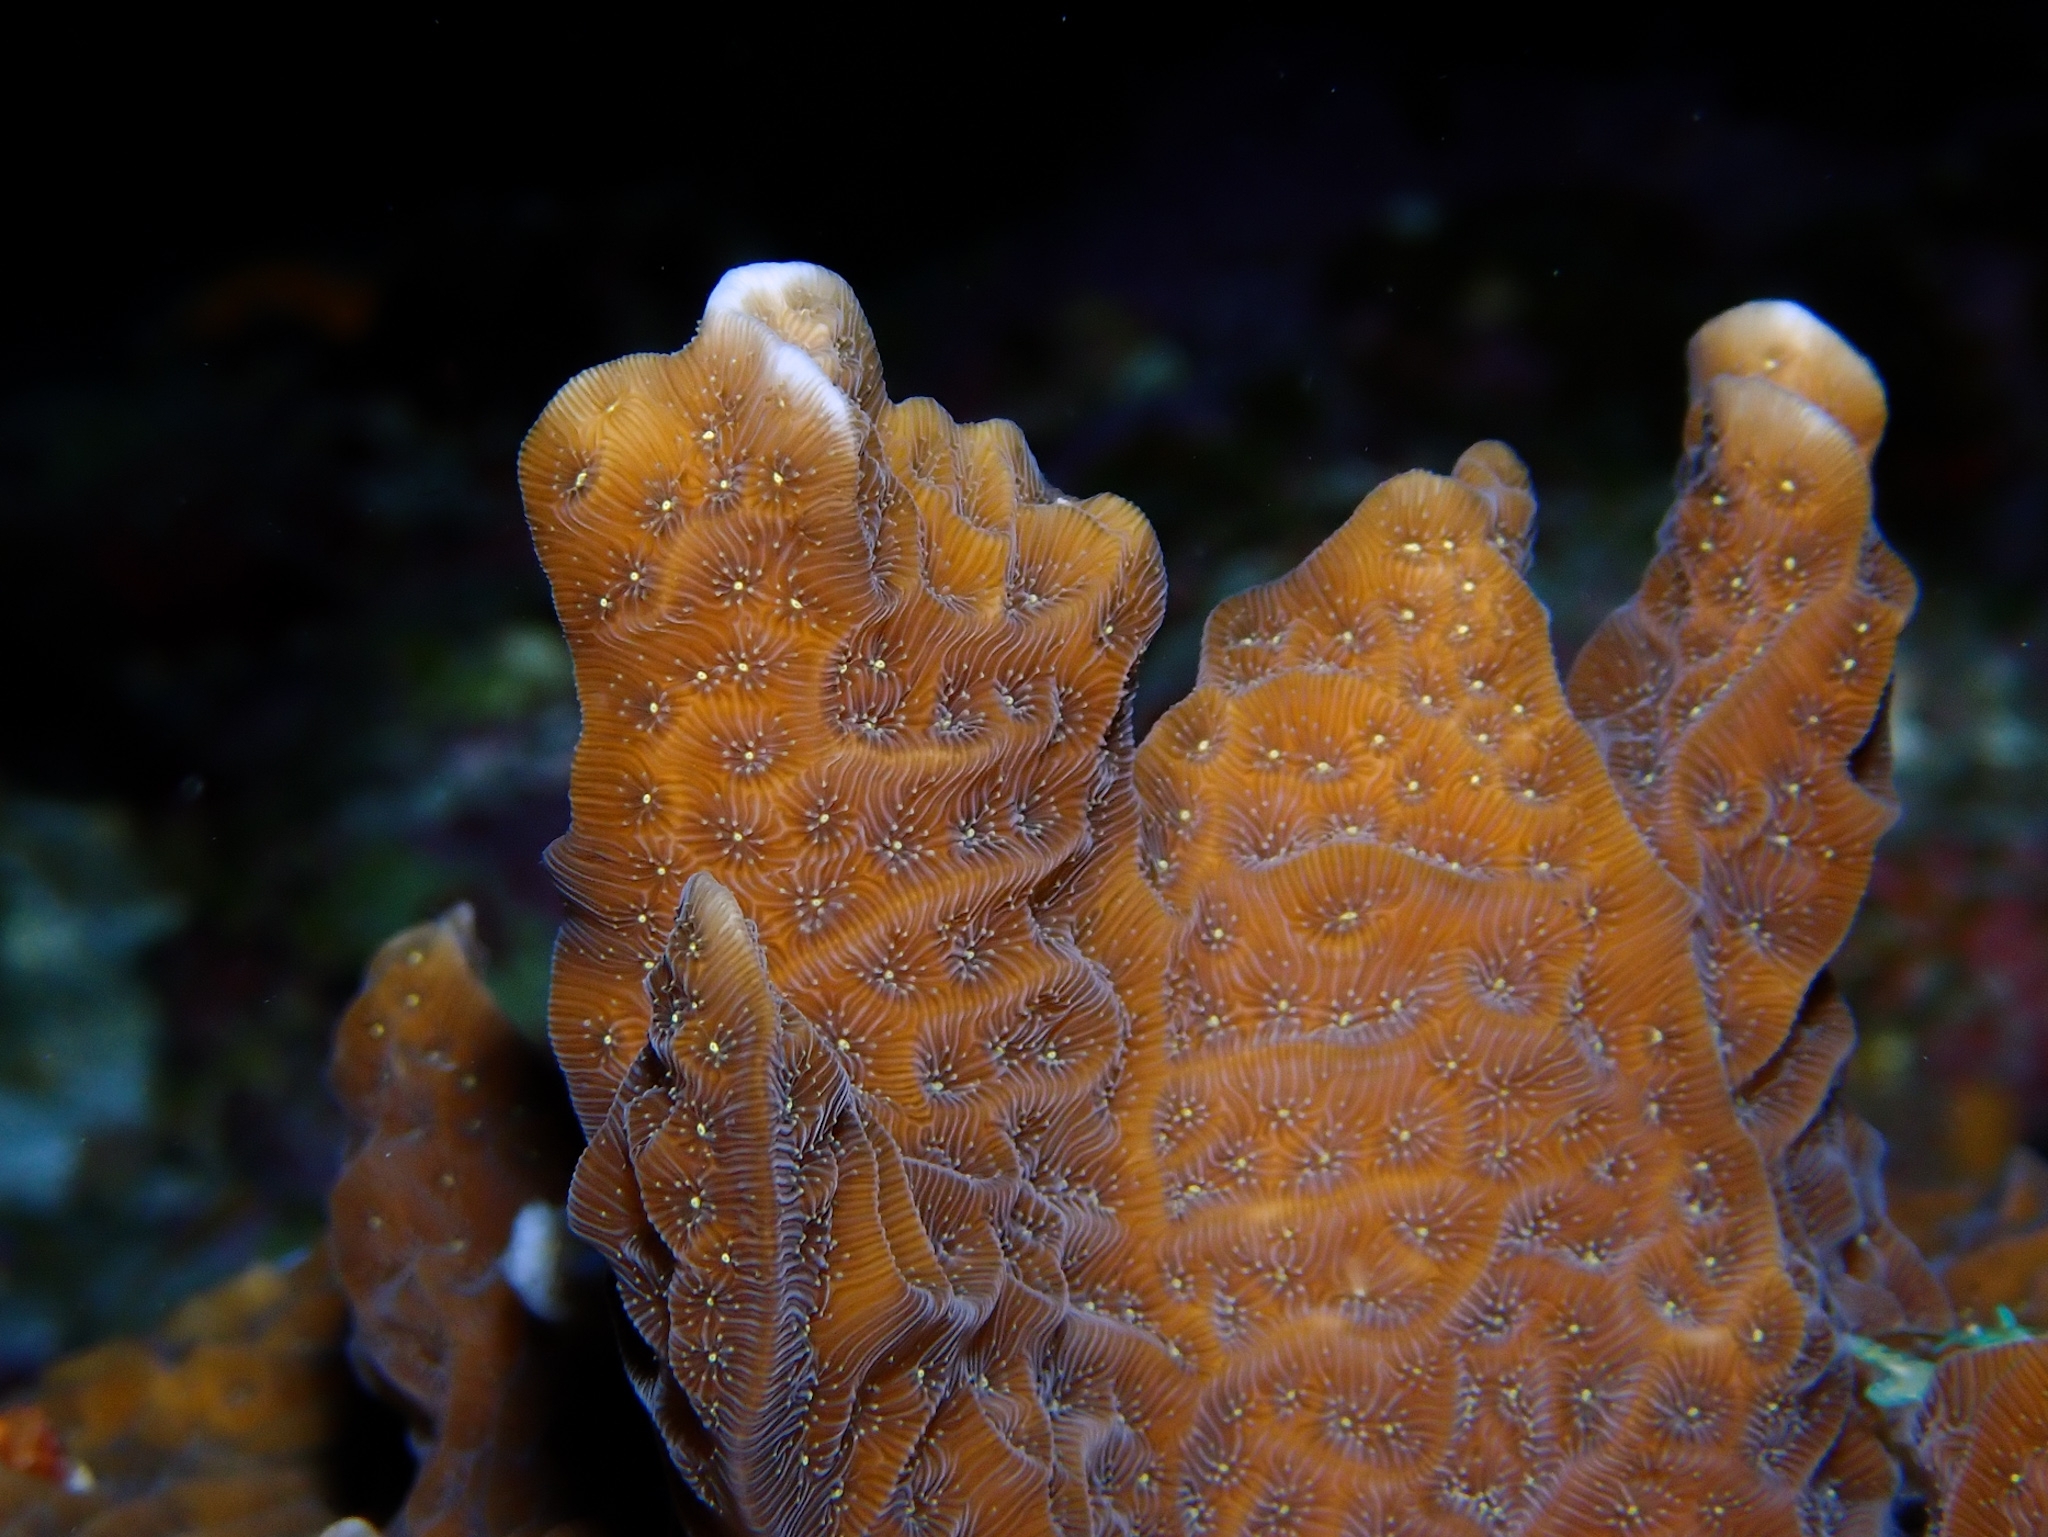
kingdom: Animalia
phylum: Cnidaria
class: Anthozoa
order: Scleractinia
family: Agariciidae
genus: Agaricia
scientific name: Agaricia agaricites
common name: Lettuce coral
